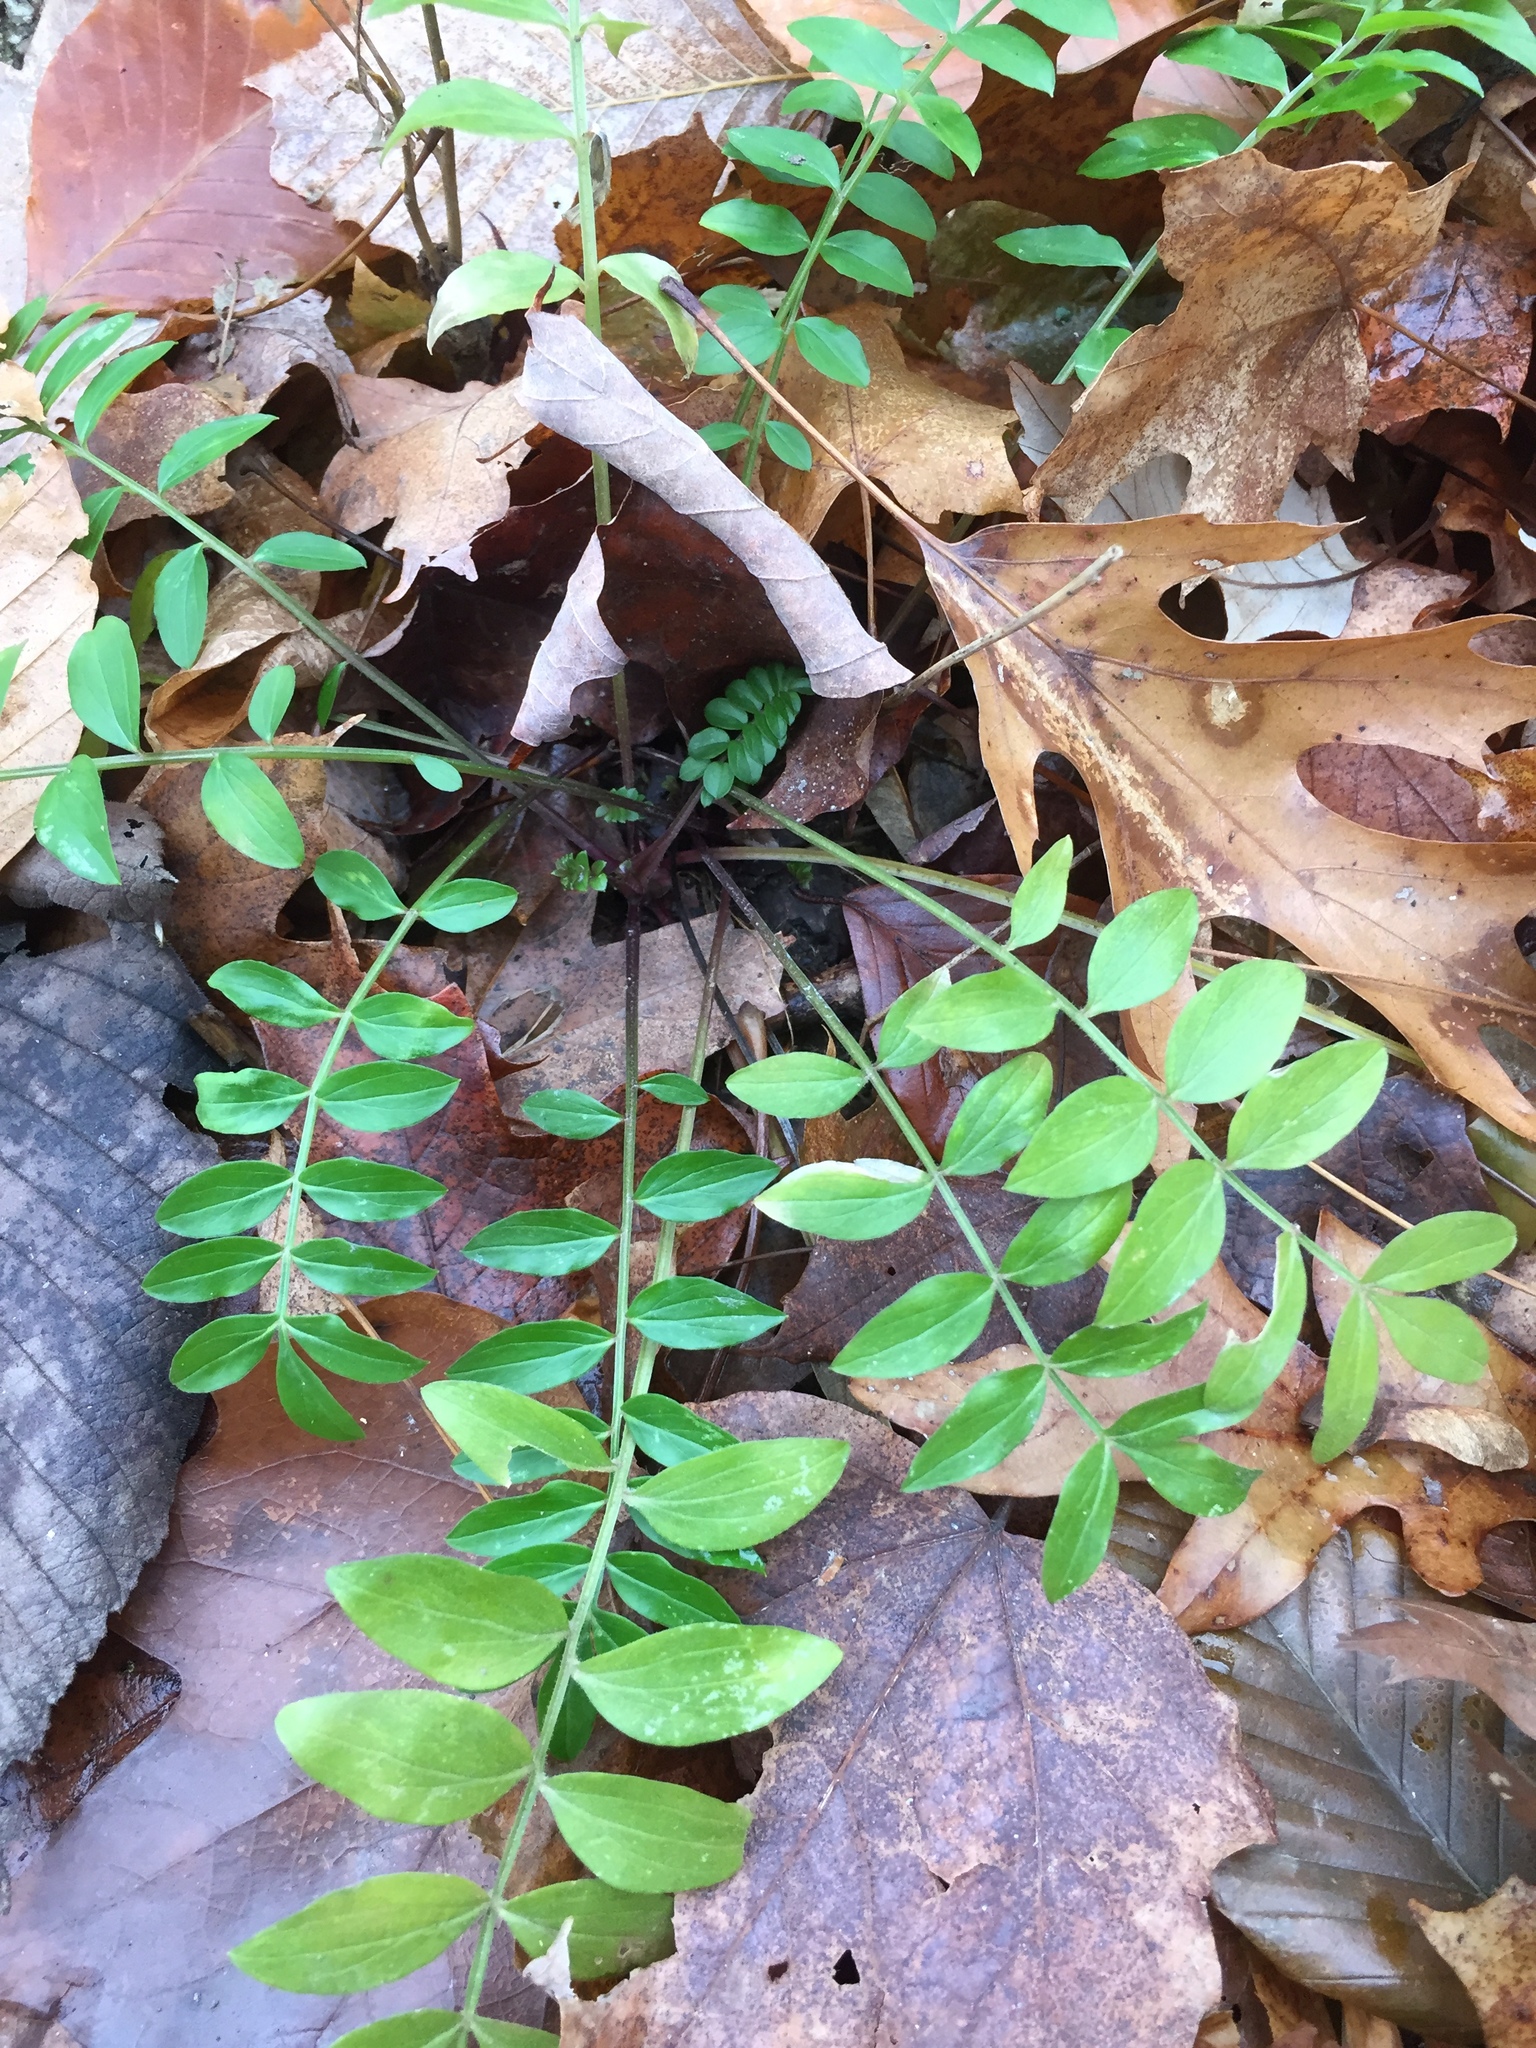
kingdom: Plantae
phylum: Tracheophyta
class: Magnoliopsida
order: Ericales
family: Polemoniaceae
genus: Polemonium
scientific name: Polemonium reptans
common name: Creeping jacob's-ladder
